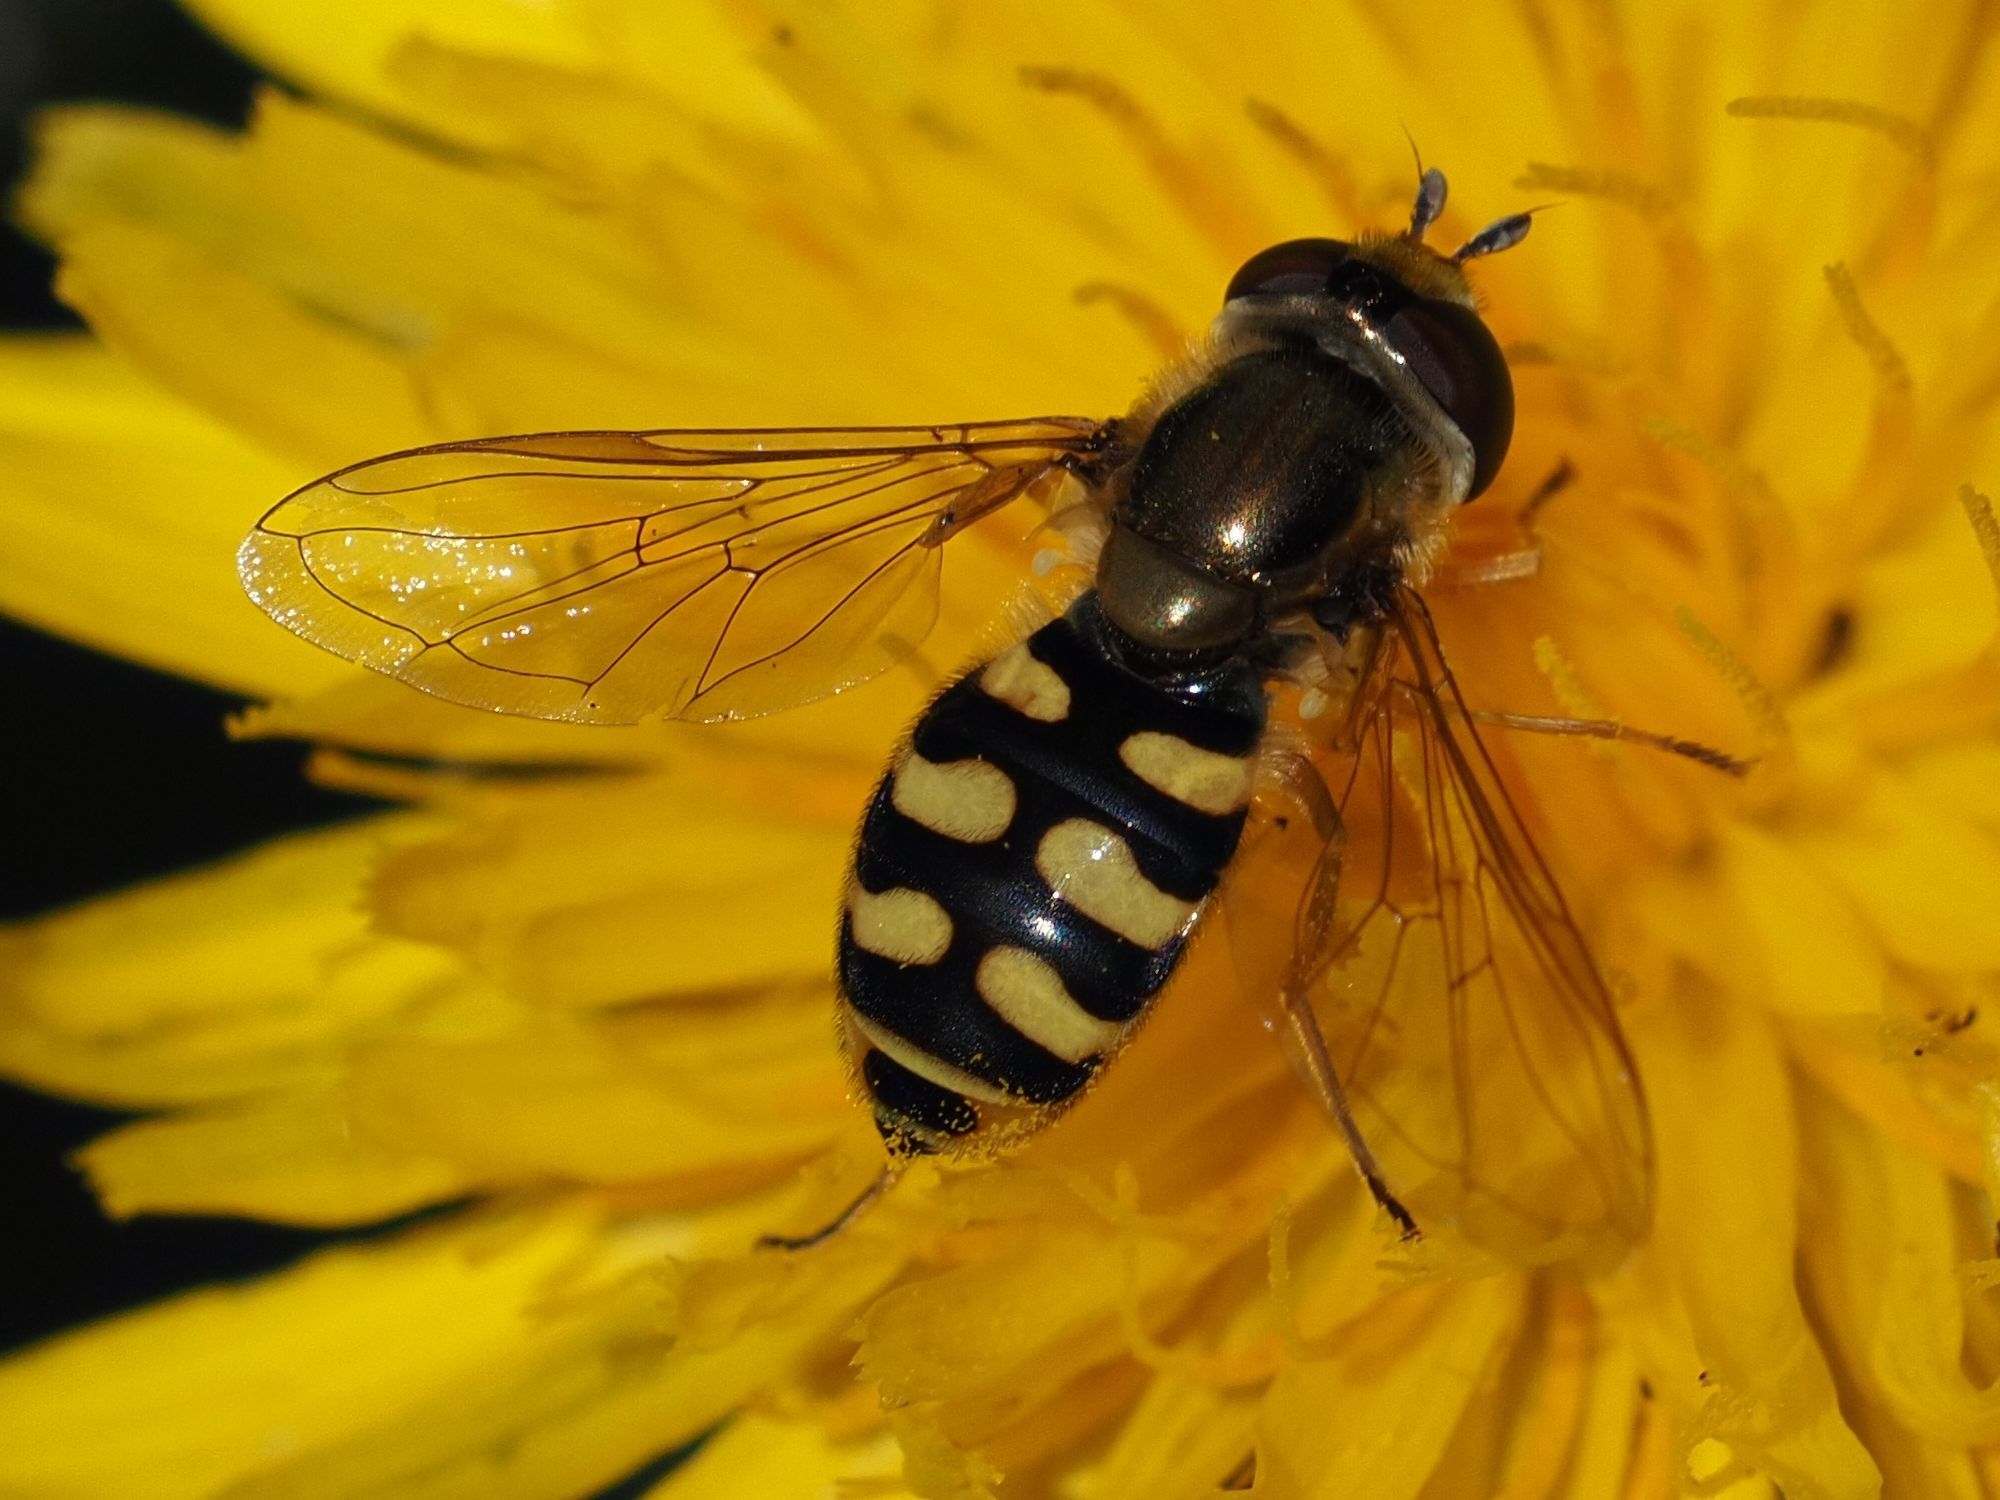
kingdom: Animalia
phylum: Arthropoda
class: Insecta
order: Diptera
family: Syrphidae
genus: Eupeodes
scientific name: Eupeodes corollae
